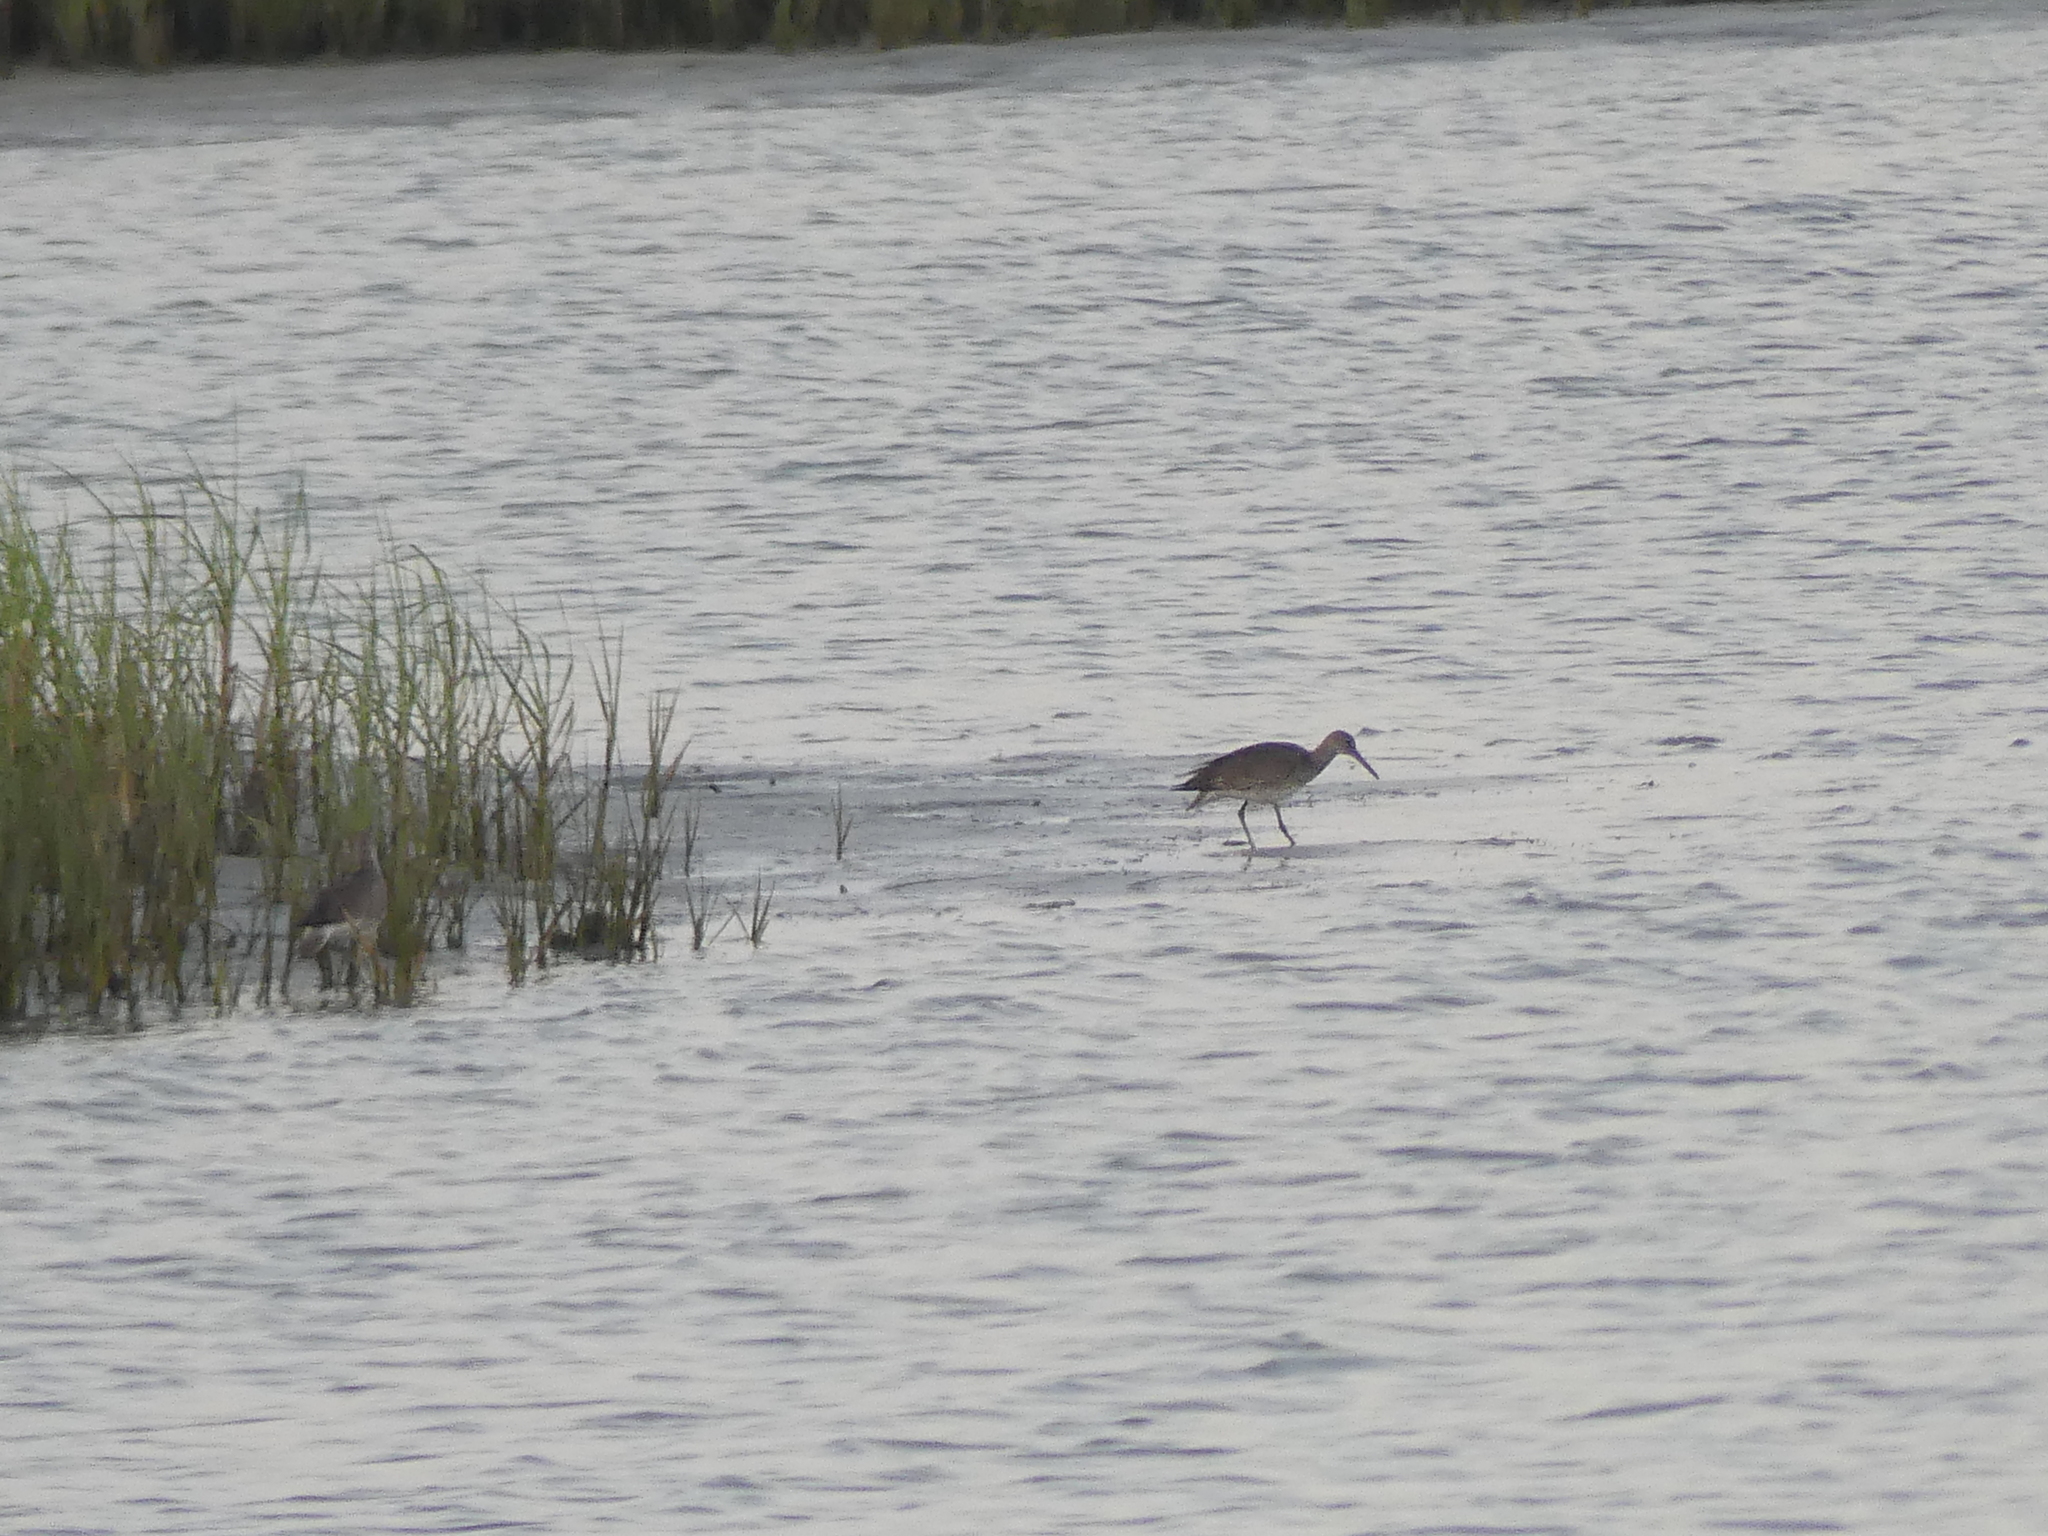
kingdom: Animalia
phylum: Chordata
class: Aves
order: Charadriiformes
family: Scolopacidae
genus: Tringa
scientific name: Tringa semipalmata
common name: Willet
